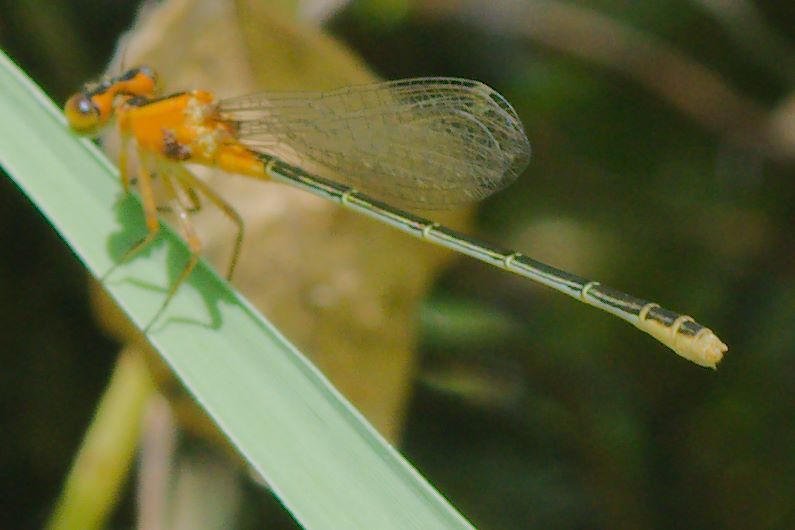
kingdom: Animalia
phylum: Arthropoda
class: Insecta
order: Odonata
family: Coenagrionidae
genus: Ischnura
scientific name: Ischnura ramburii
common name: Rambur's forktail
